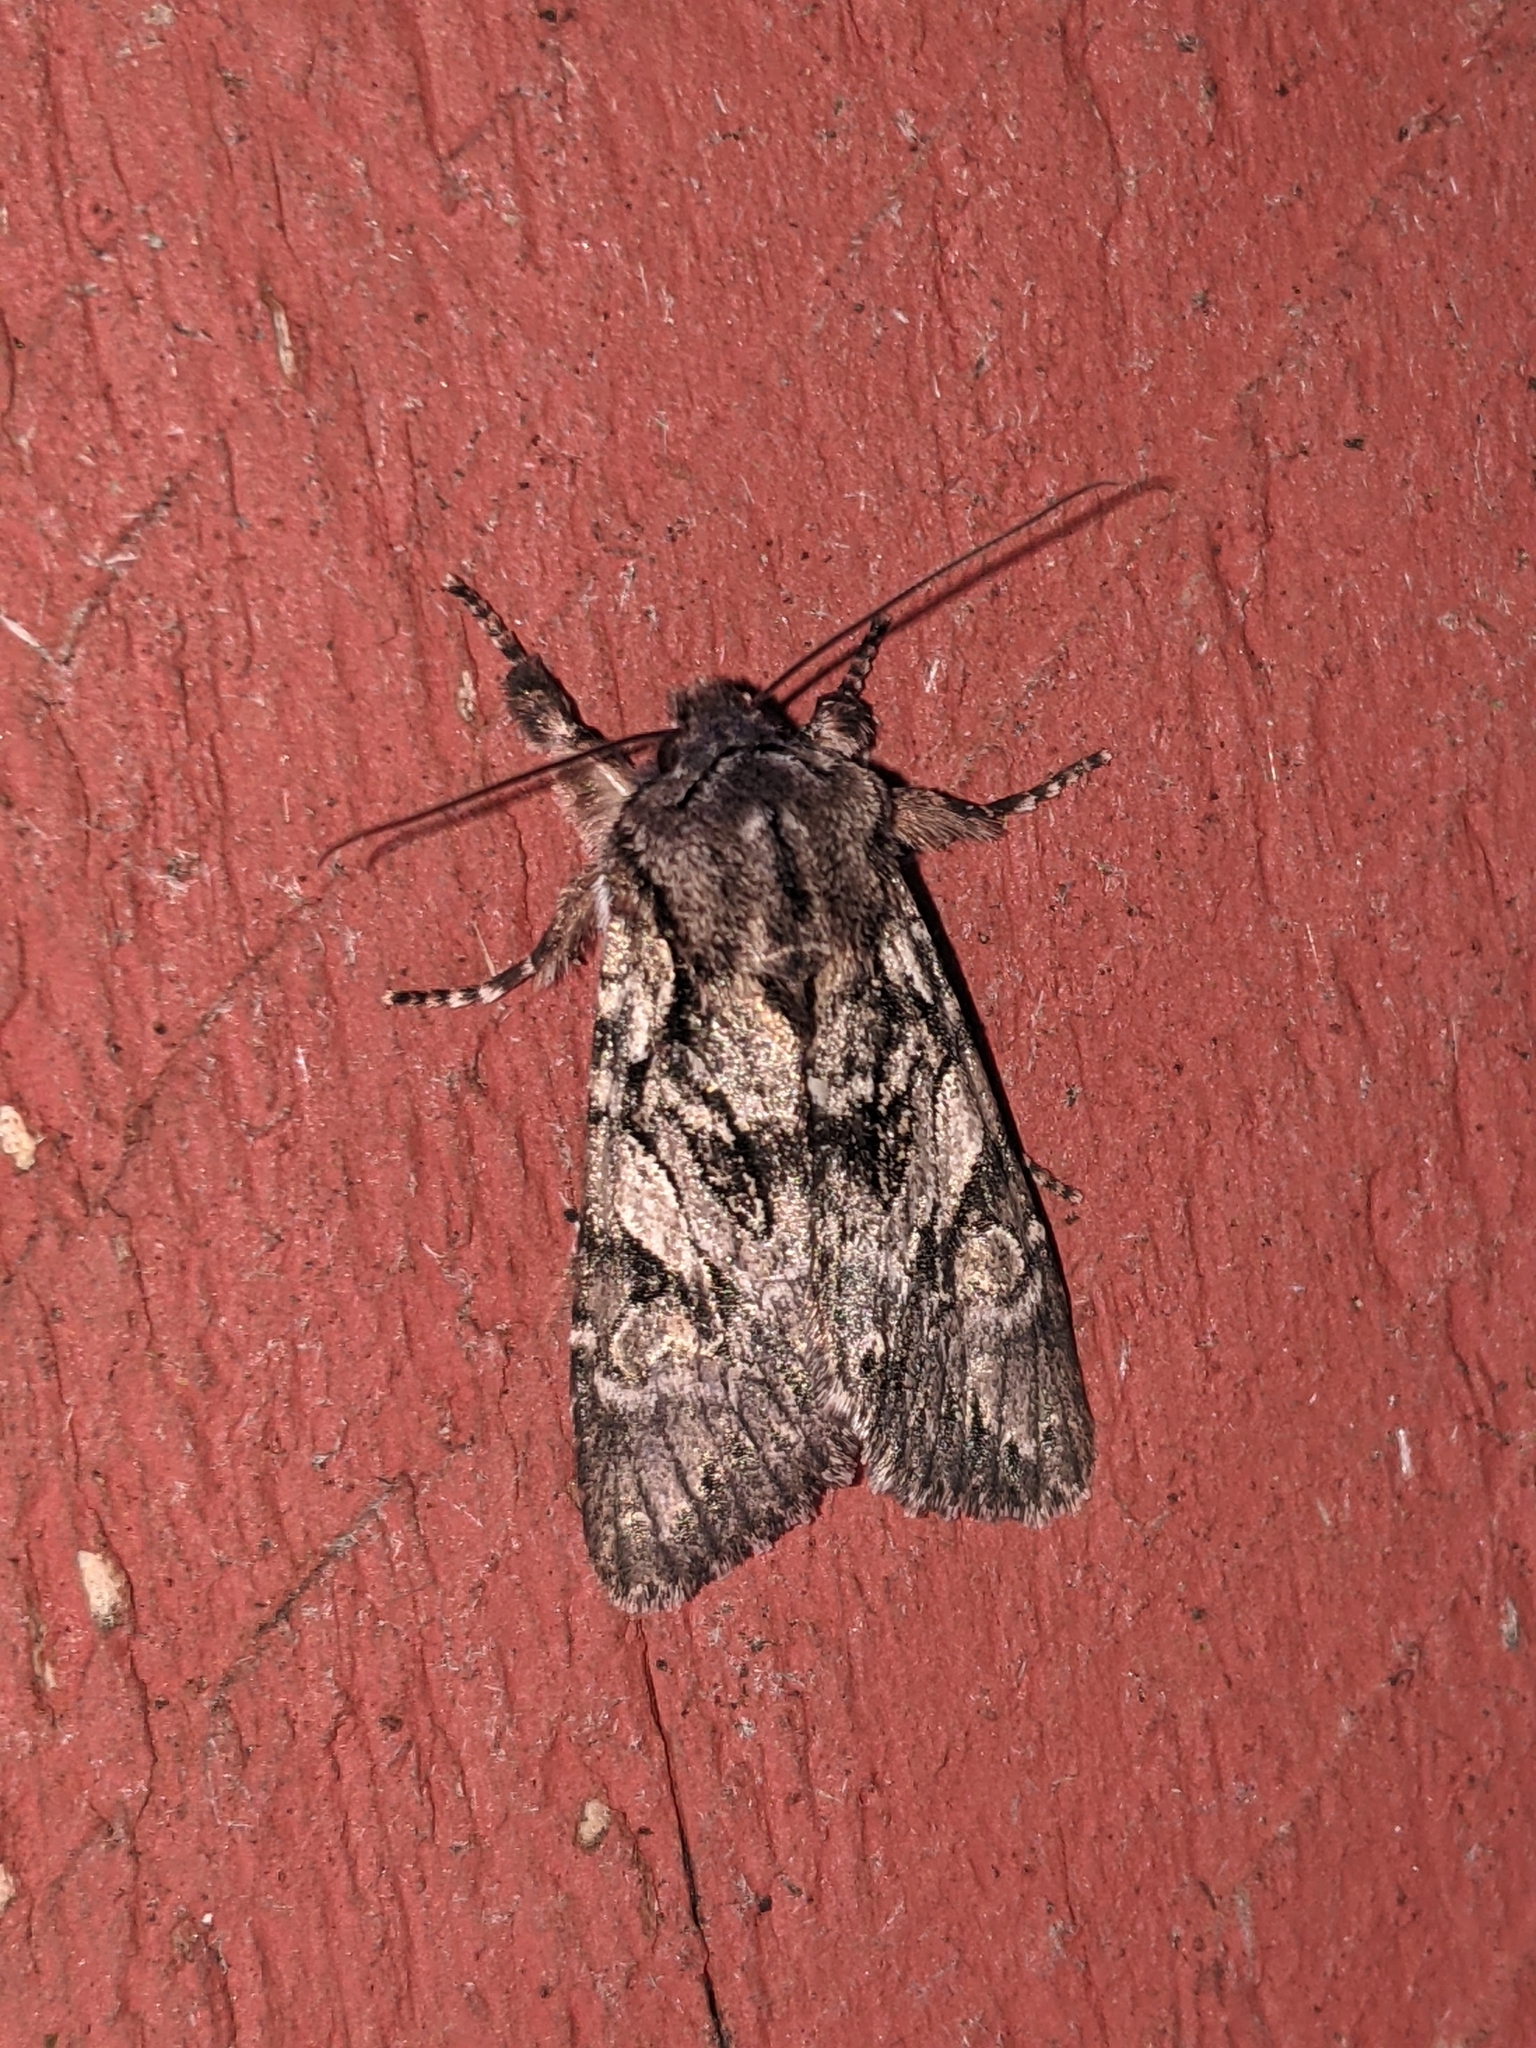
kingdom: Animalia
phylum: Arthropoda
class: Insecta
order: Lepidoptera
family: Noctuidae
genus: Egira
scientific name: Egira simplex
